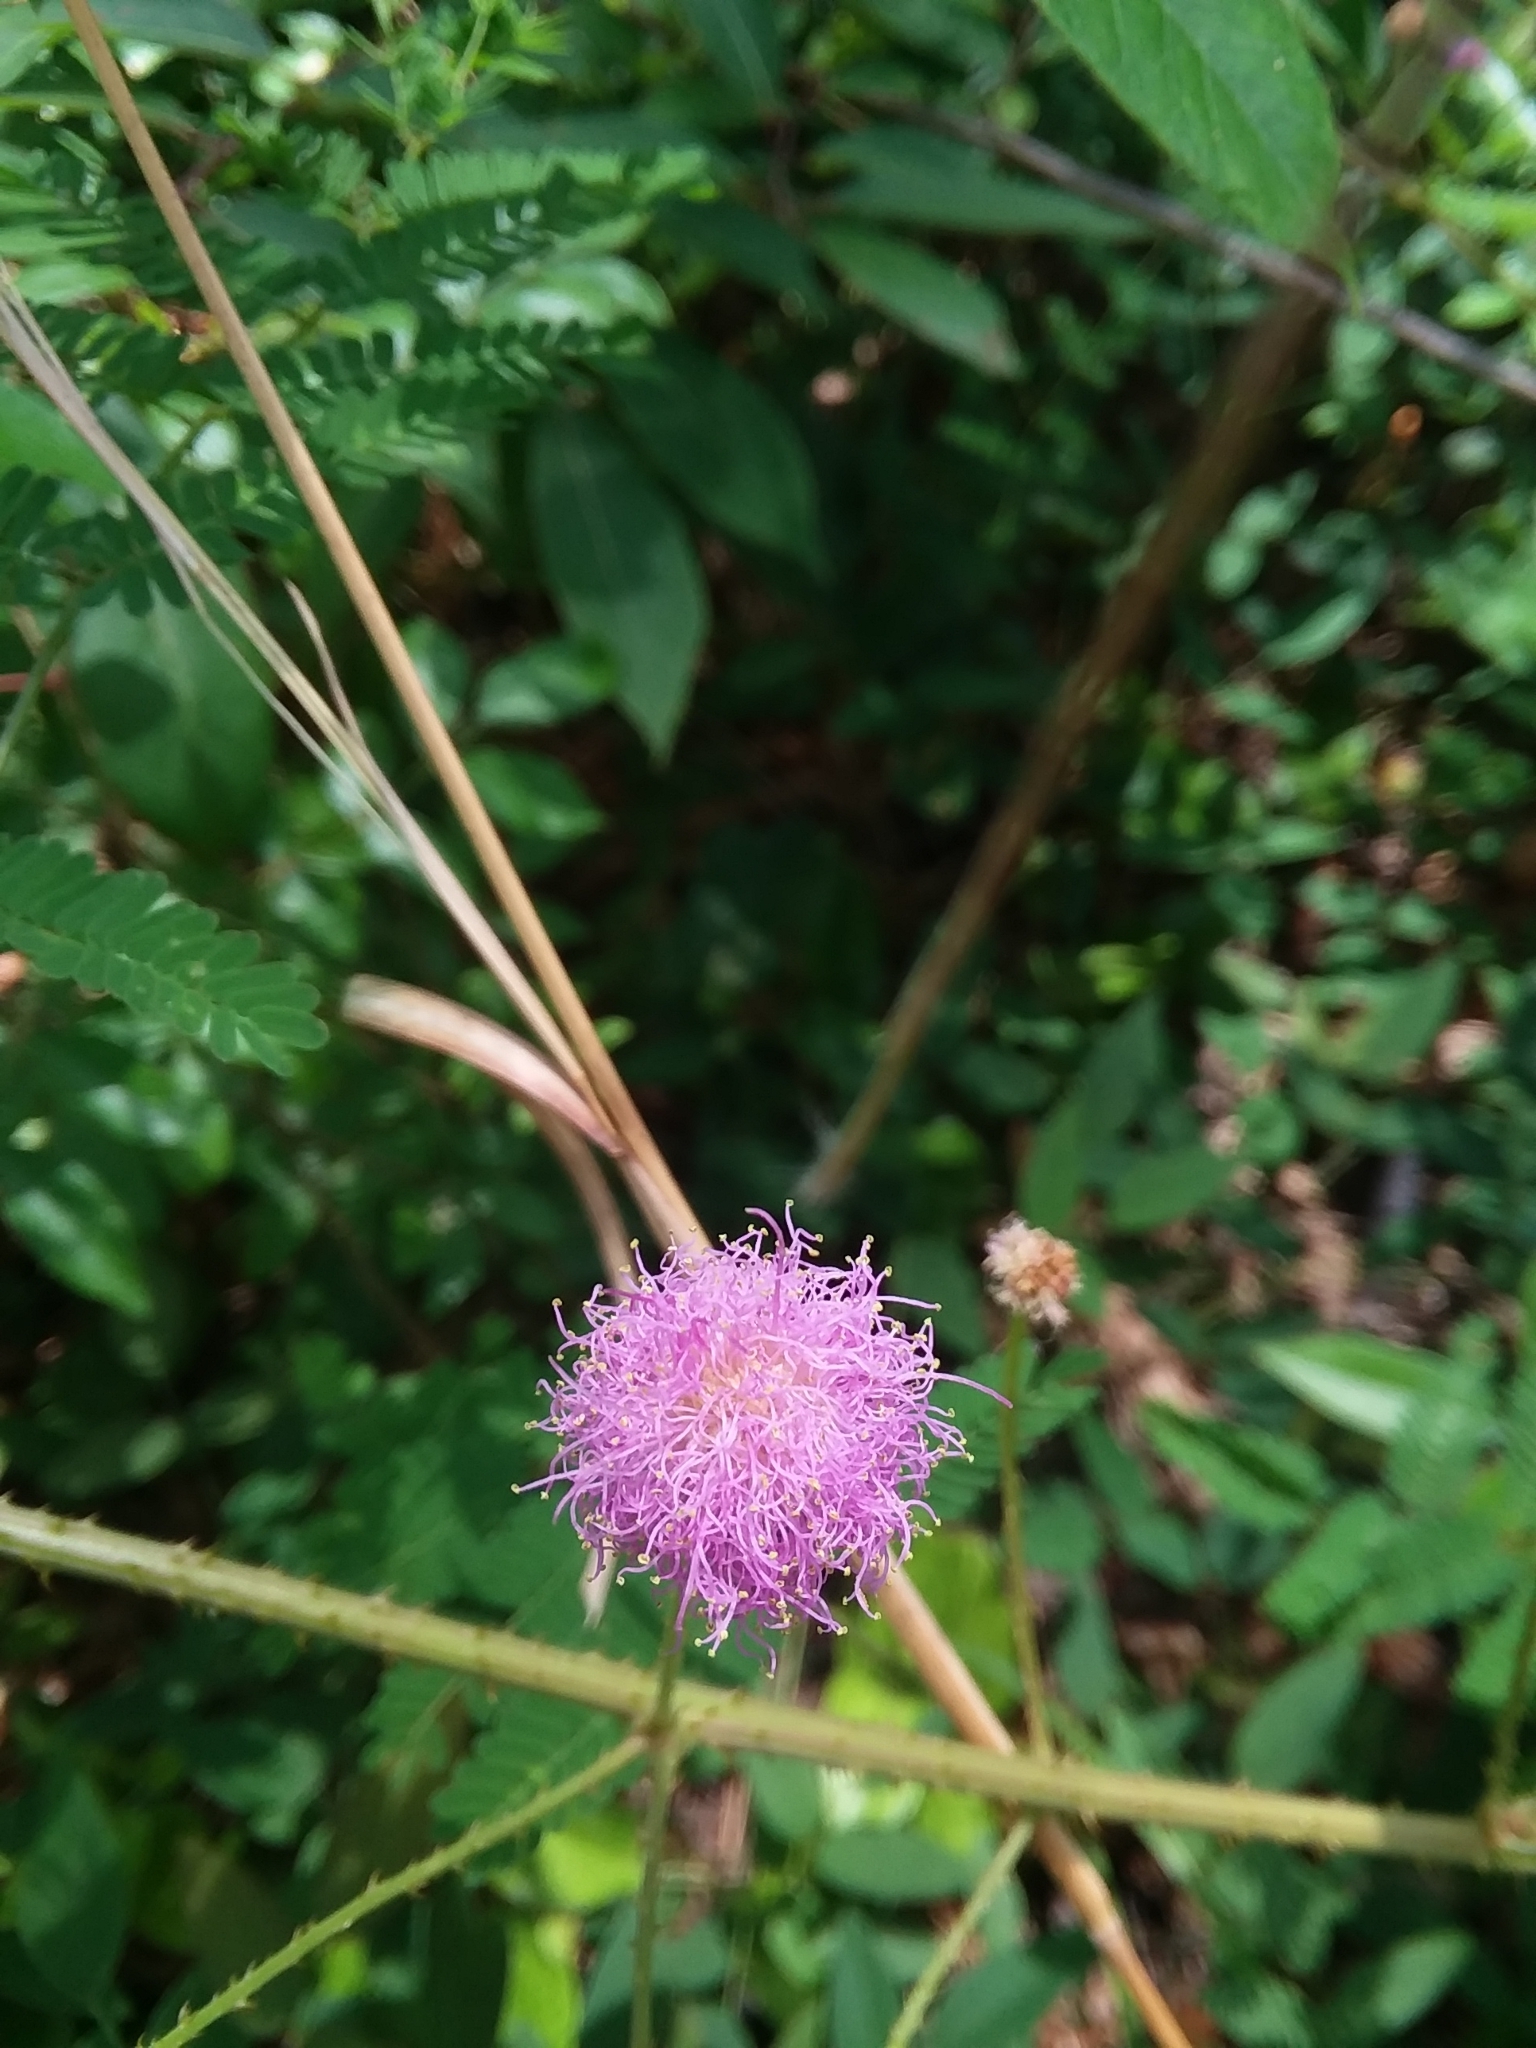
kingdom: Plantae
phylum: Tracheophyta
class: Magnoliopsida
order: Fabales
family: Fabaceae
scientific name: Fabaceae
